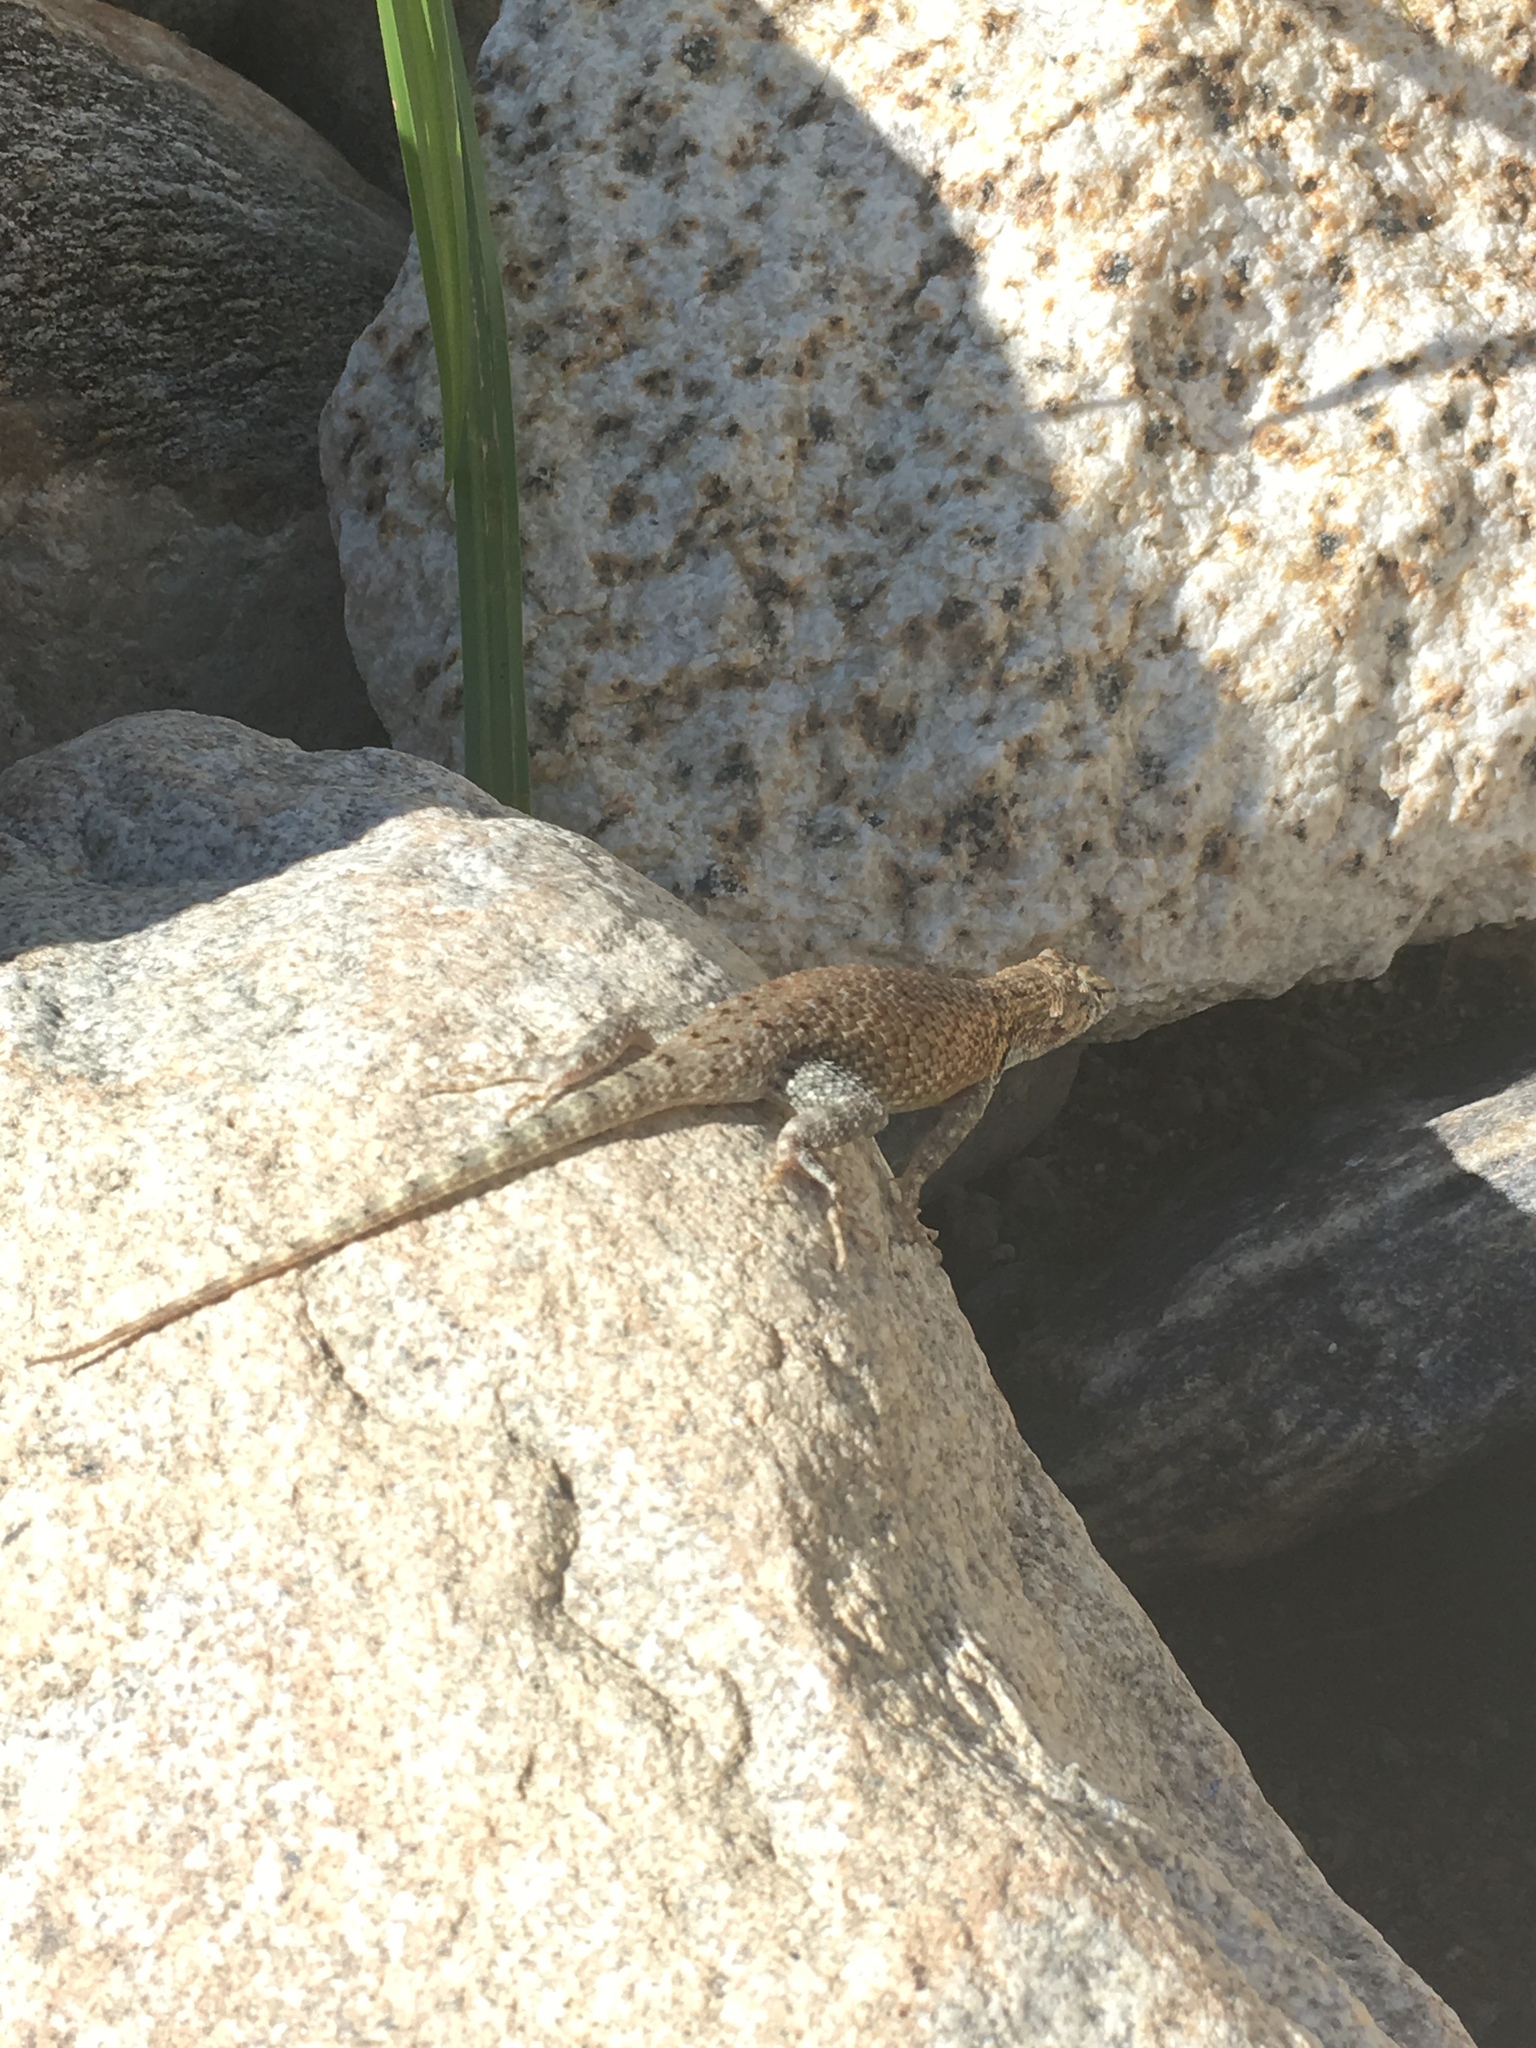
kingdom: Animalia
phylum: Chordata
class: Squamata
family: Phrynosomatidae
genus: Sceloporus
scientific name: Sceloporus hunsakeri
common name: Hunsaker's spiny lizard
